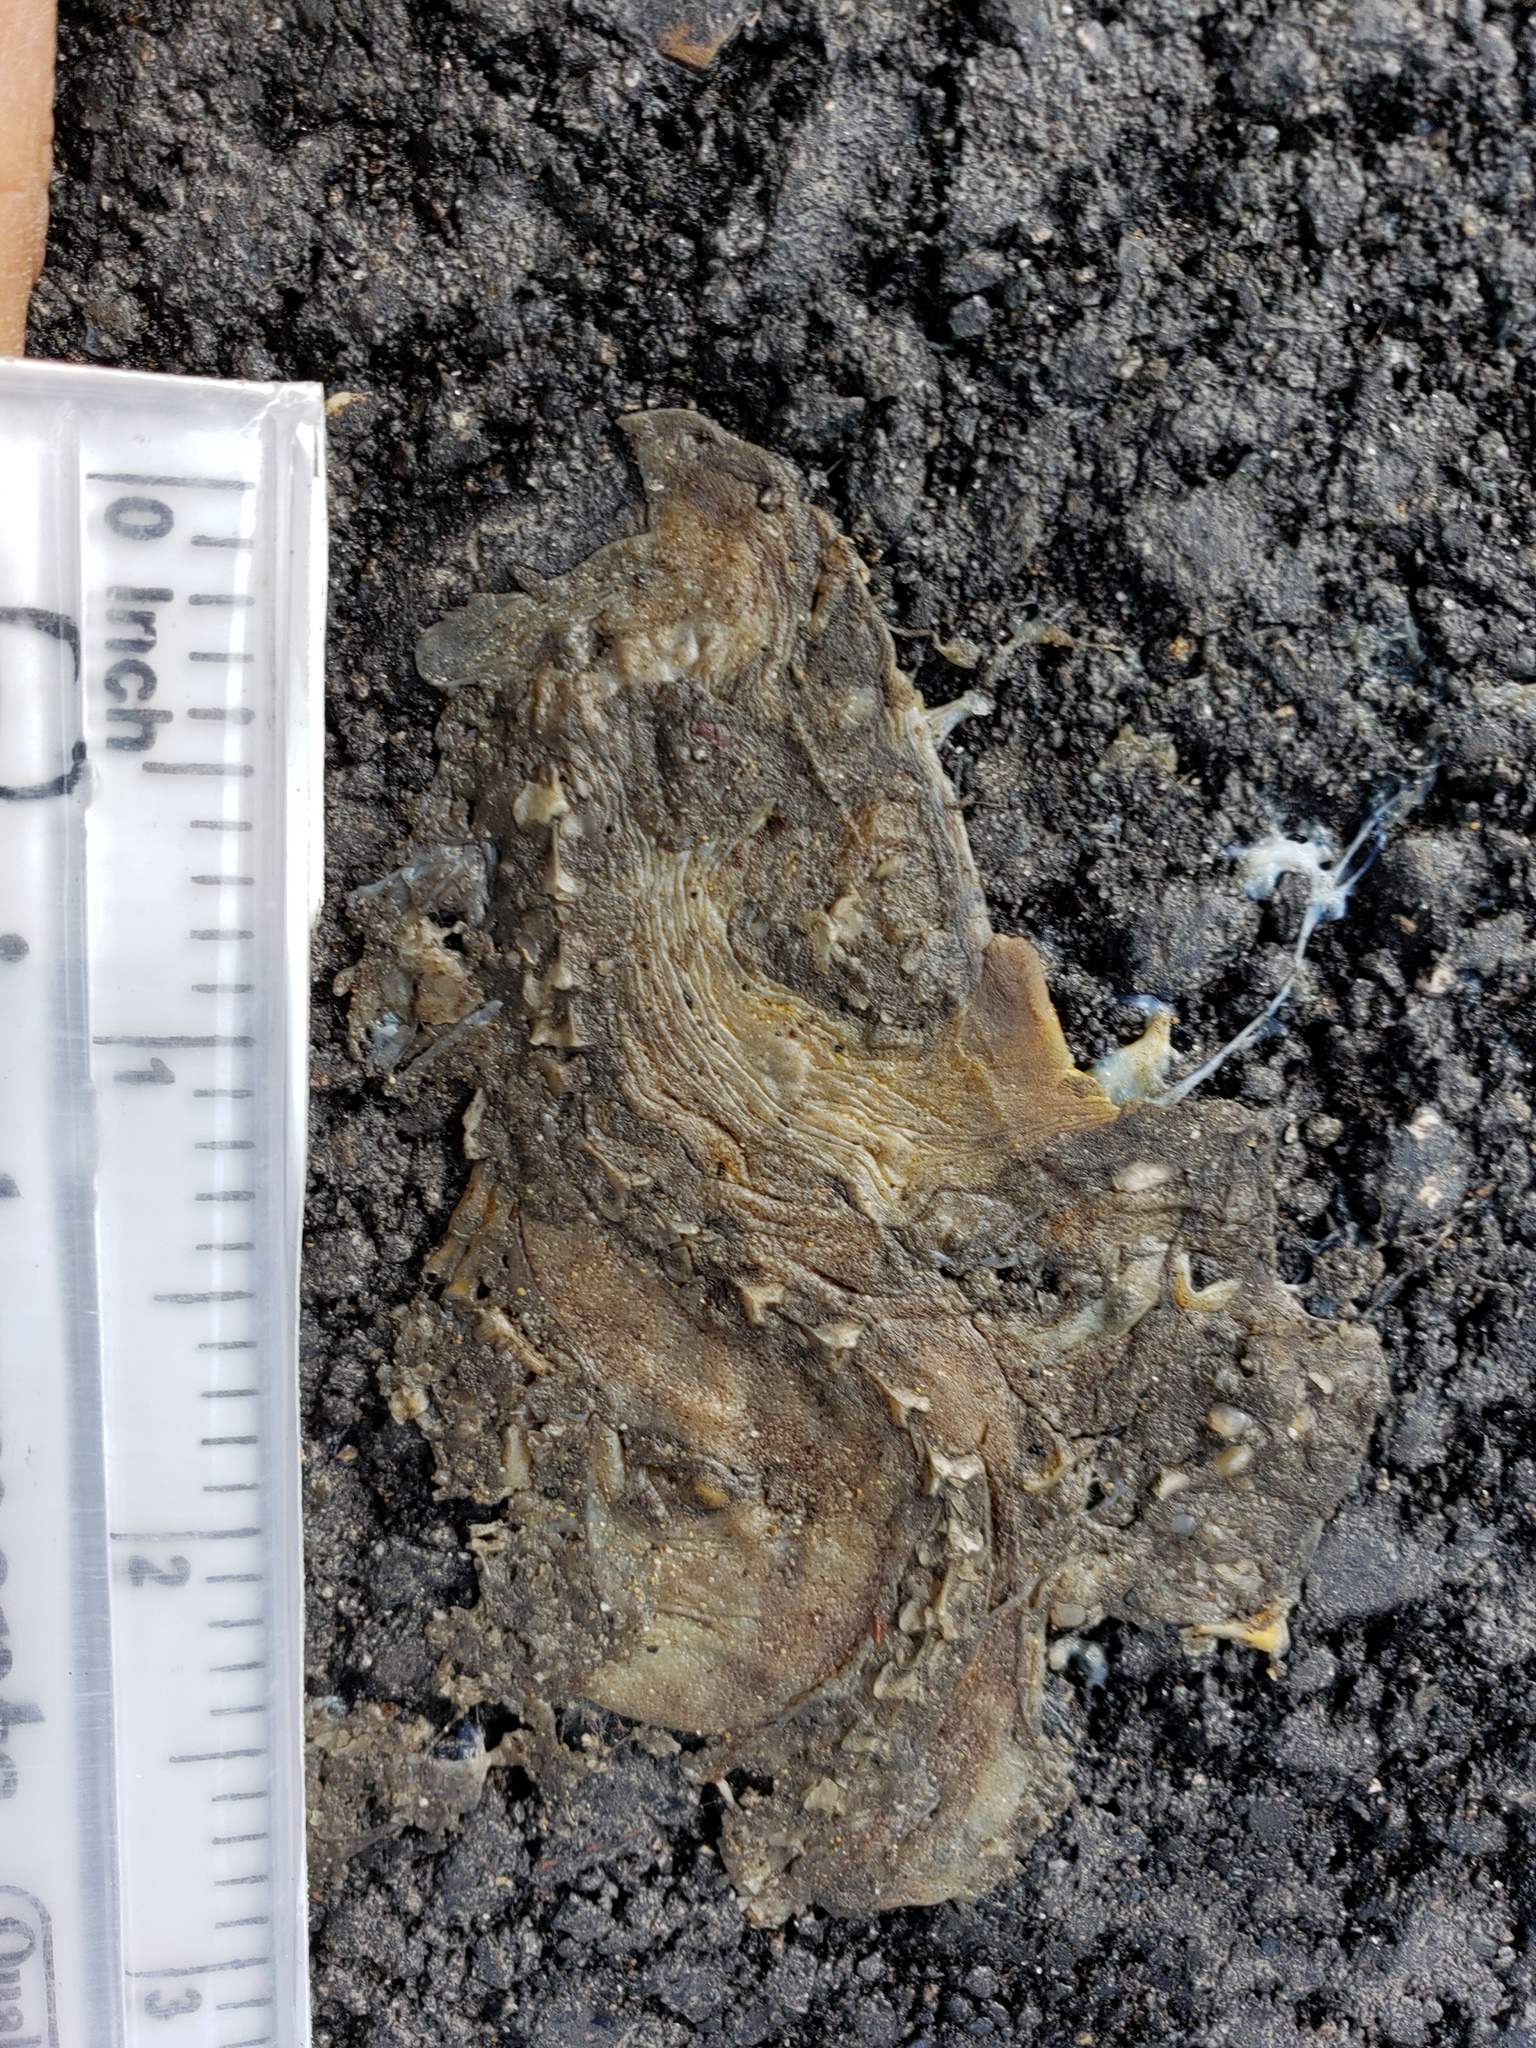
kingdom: Animalia
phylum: Chordata
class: Amphibia
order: Caudata
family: Salamandridae
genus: Taricha
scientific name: Taricha
